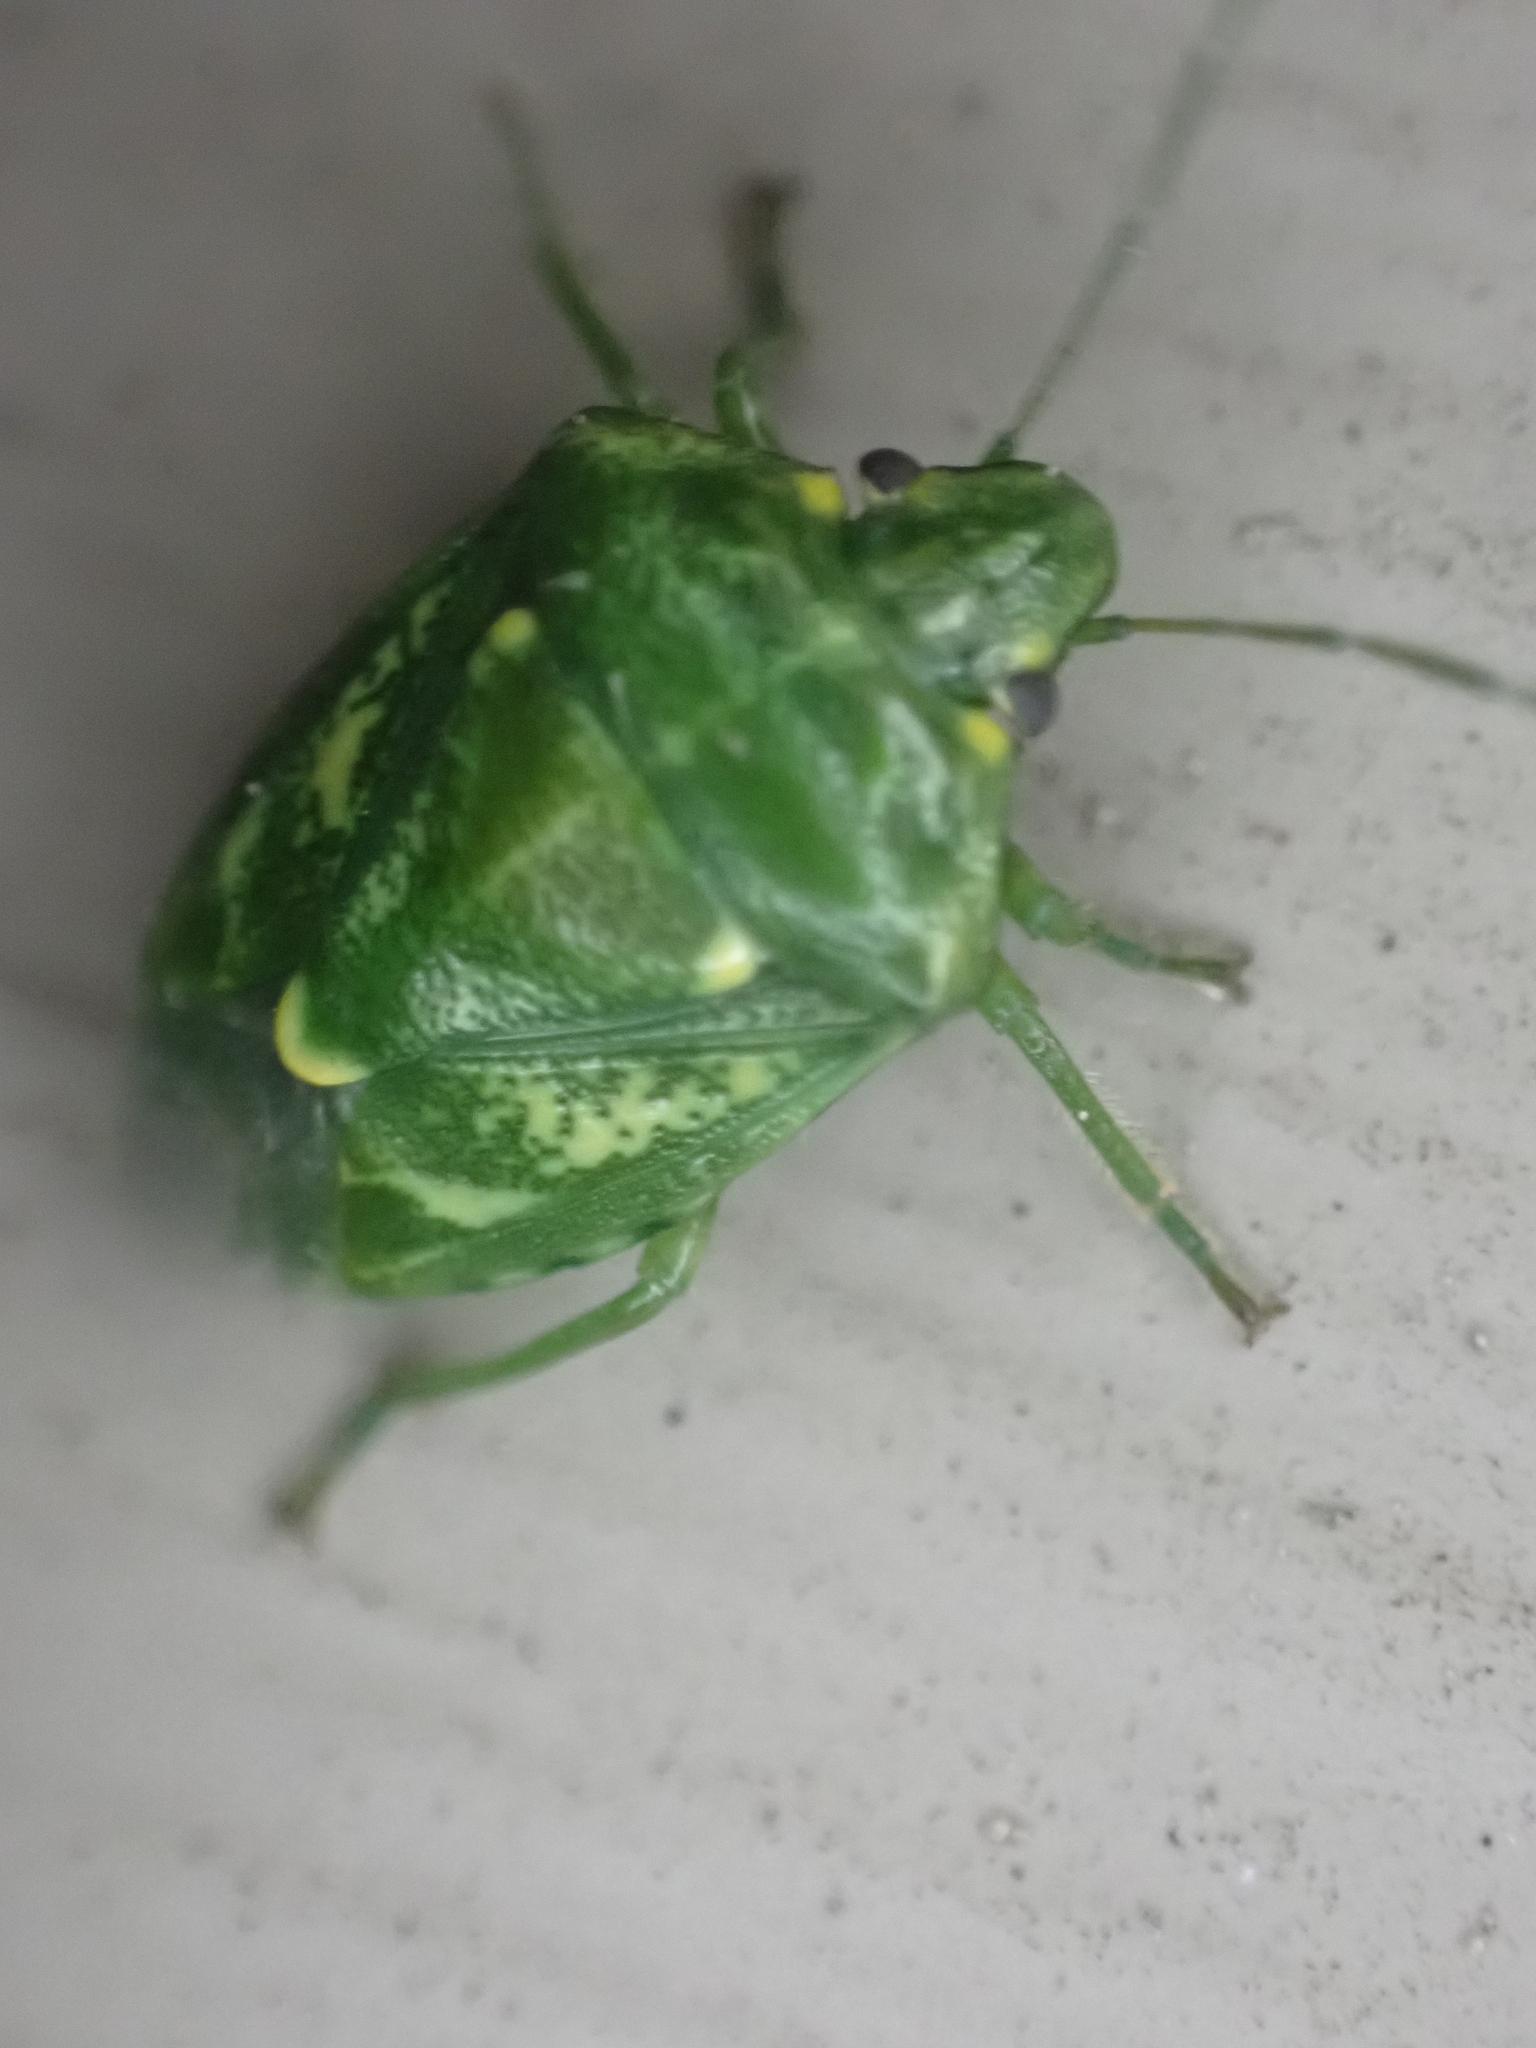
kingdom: Animalia
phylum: Arthropoda
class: Insecta
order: Hemiptera
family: Pentatomidae
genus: Banasa
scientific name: Banasa euchlora
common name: Cedar berry bug
